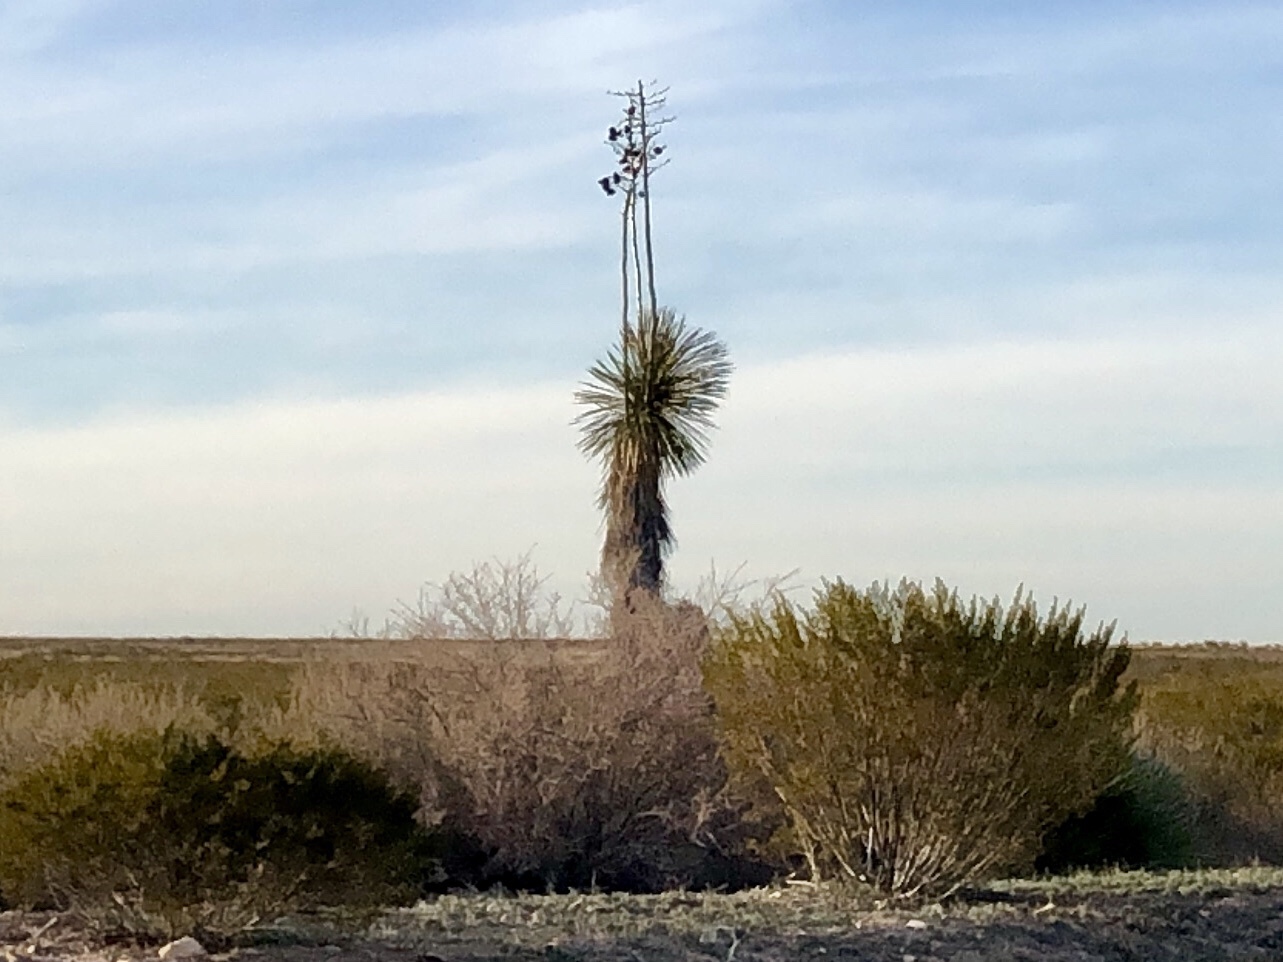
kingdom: Plantae
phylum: Tracheophyta
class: Liliopsida
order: Asparagales
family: Asparagaceae
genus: Yucca
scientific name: Yucca elata
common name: Palmella
